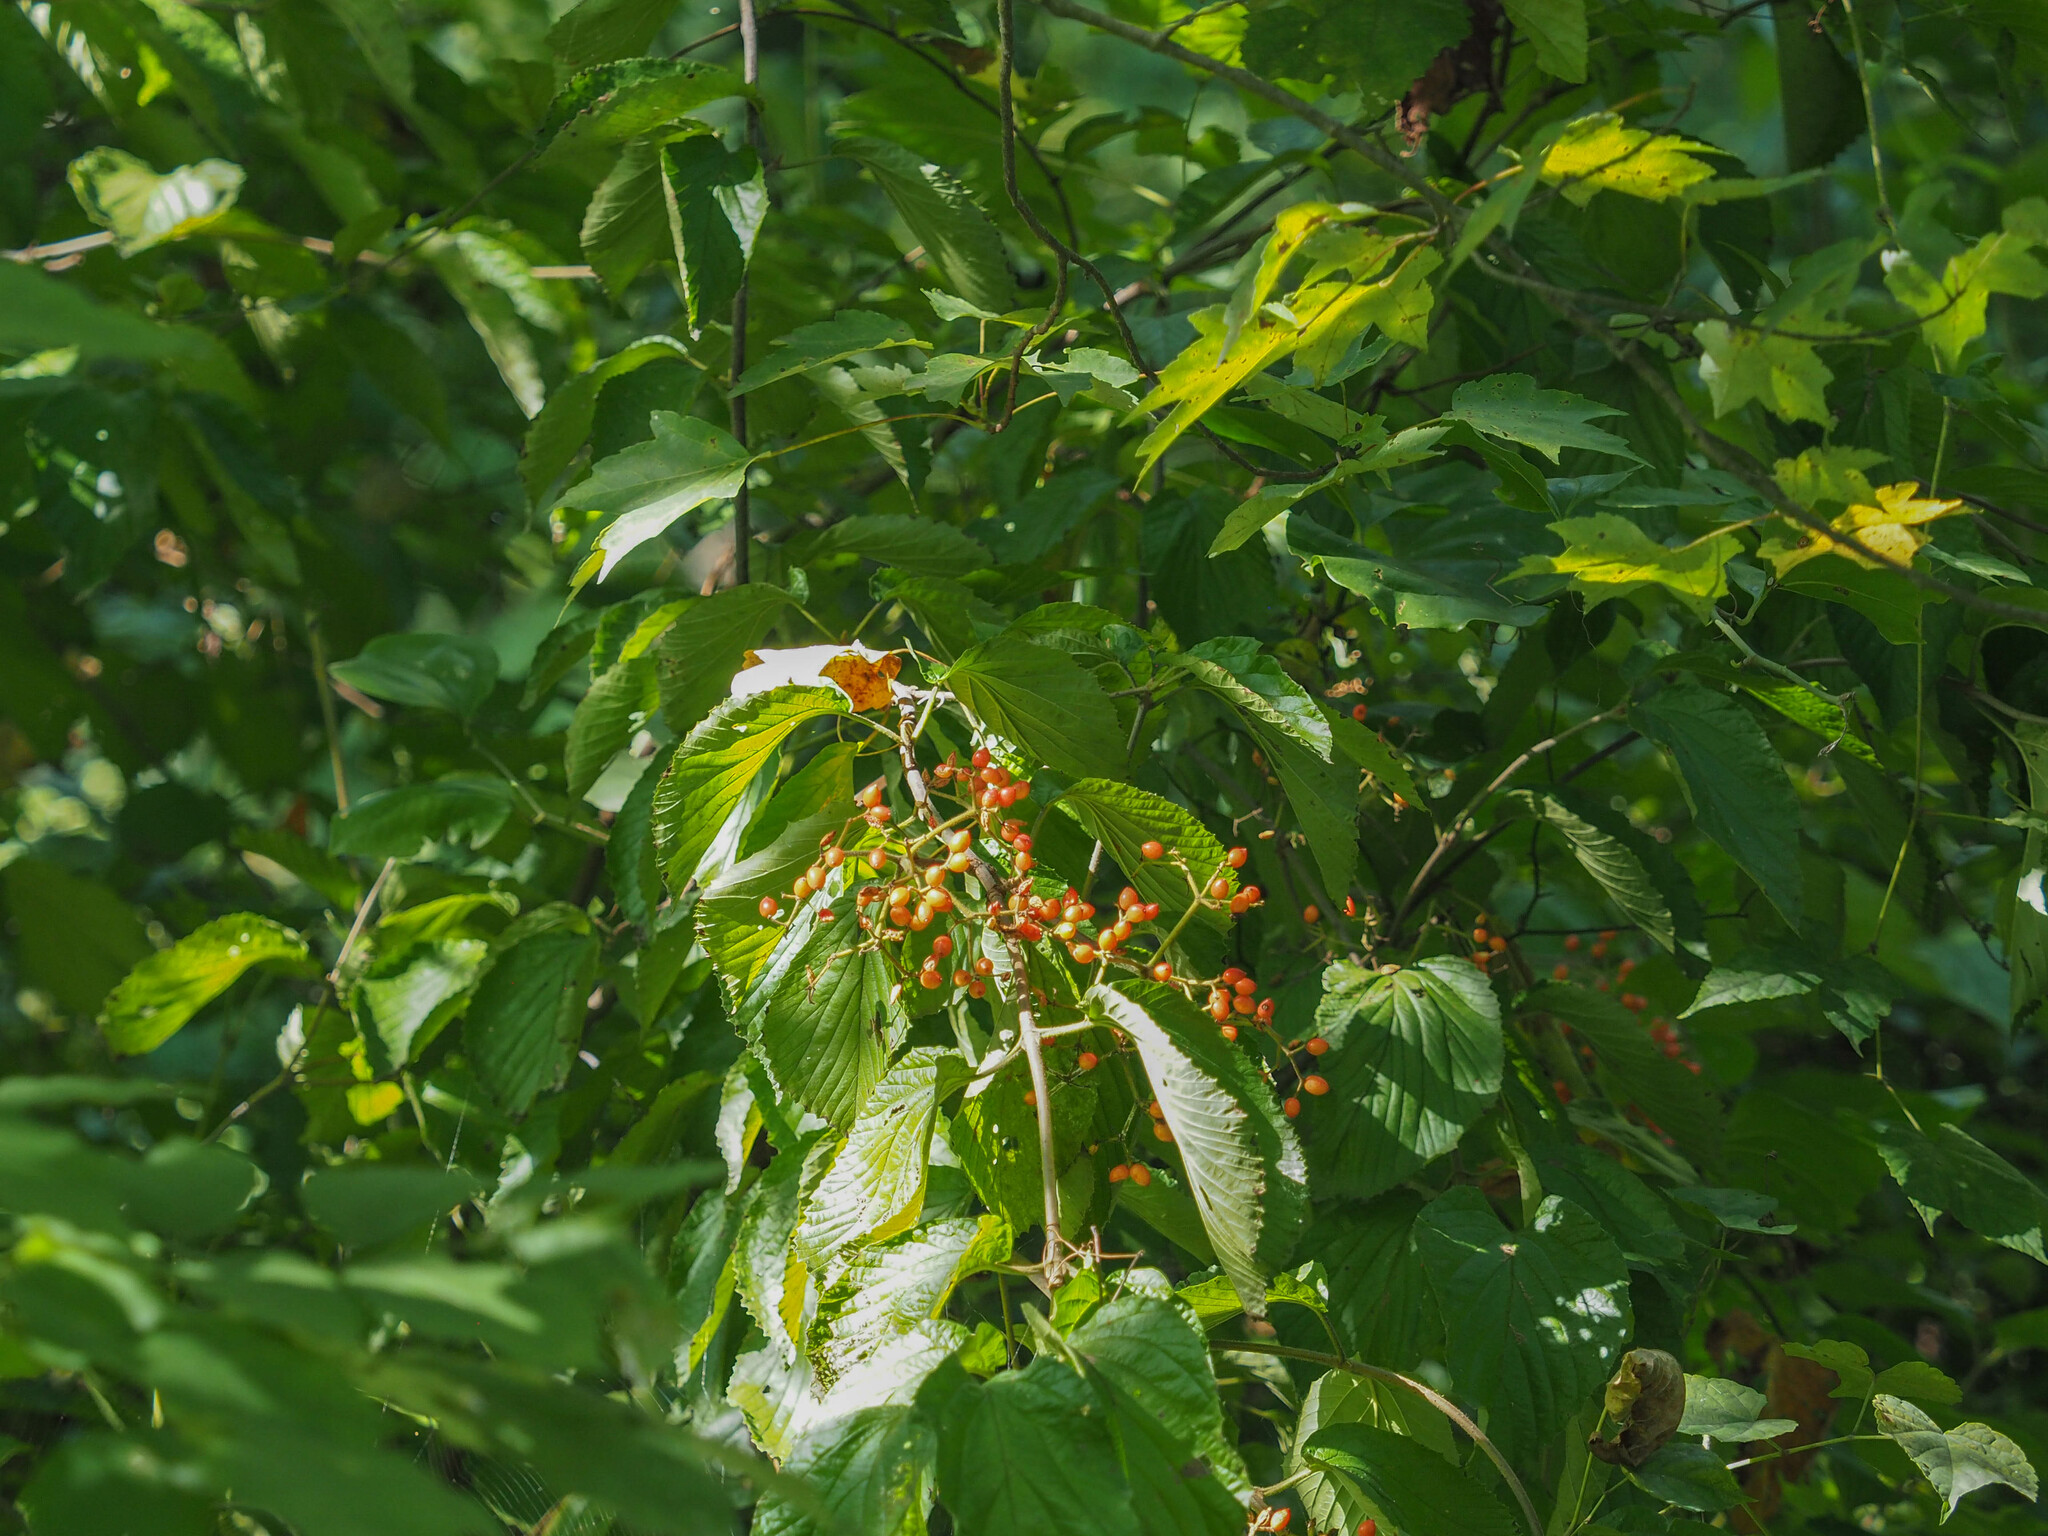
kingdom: Plantae
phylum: Tracheophyta
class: Magnoliopsida
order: Dipsacales
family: Viburnaceae
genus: Viburnum
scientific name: Viburnum dilatatum
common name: Linden arrowwood
